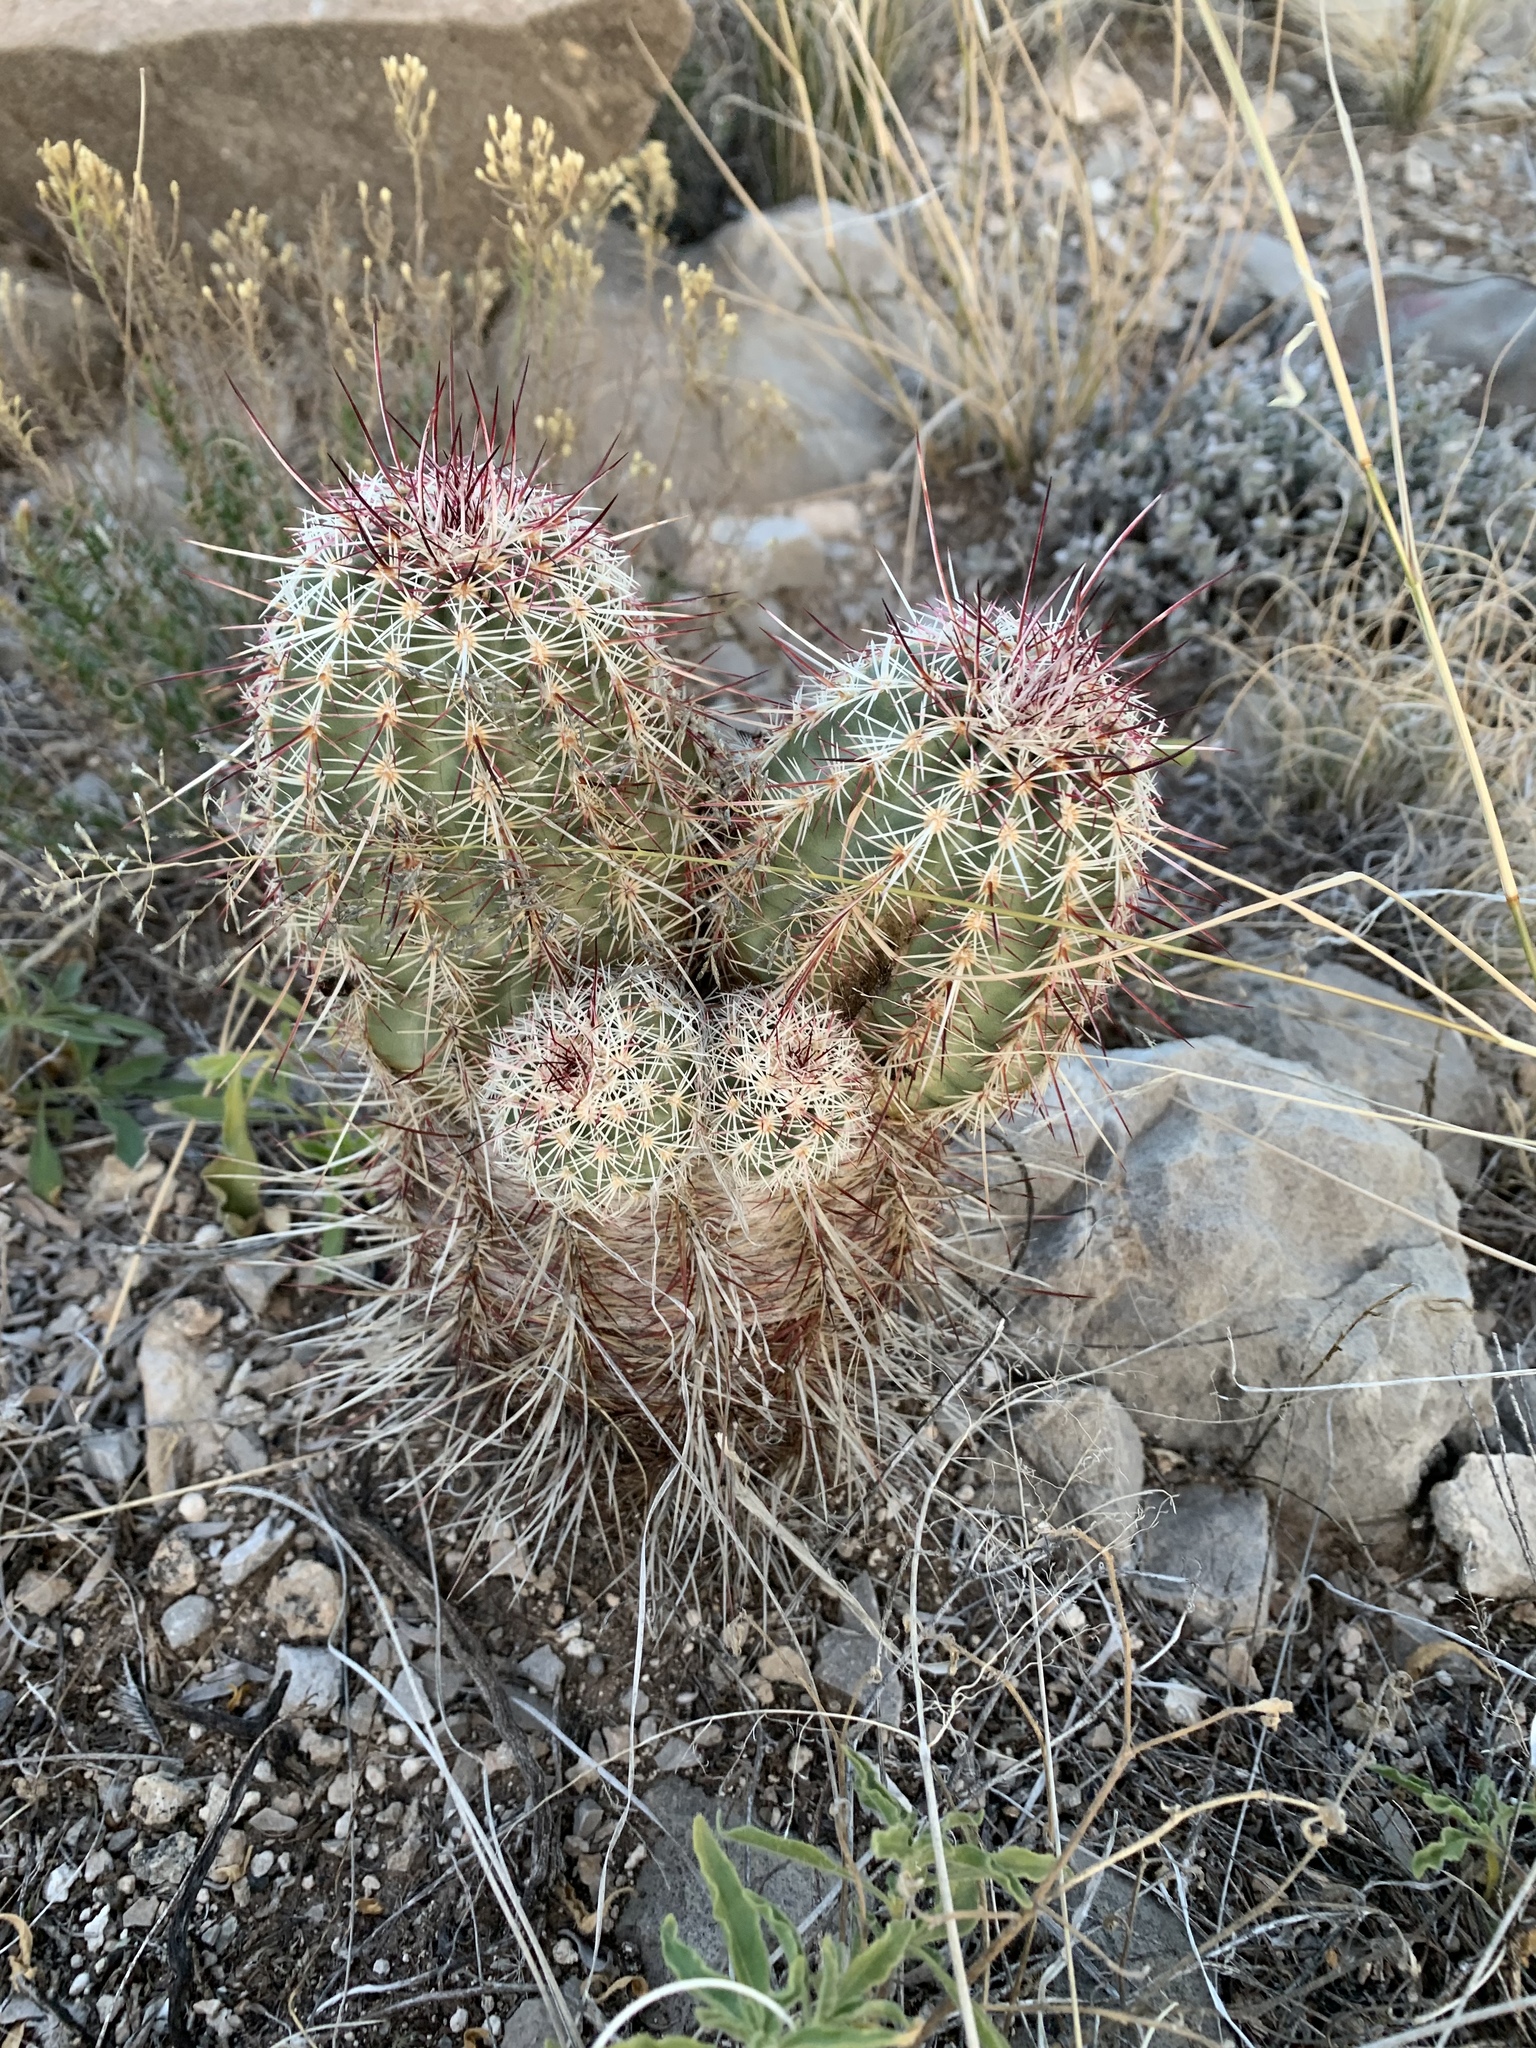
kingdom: Plantae
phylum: Tracheophyta
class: Magnoliopsida
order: Caryophyllales
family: Cactaceae
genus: Echinocereus
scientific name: Echinocereus viridiflorus
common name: Nylon hedgehog cactus
